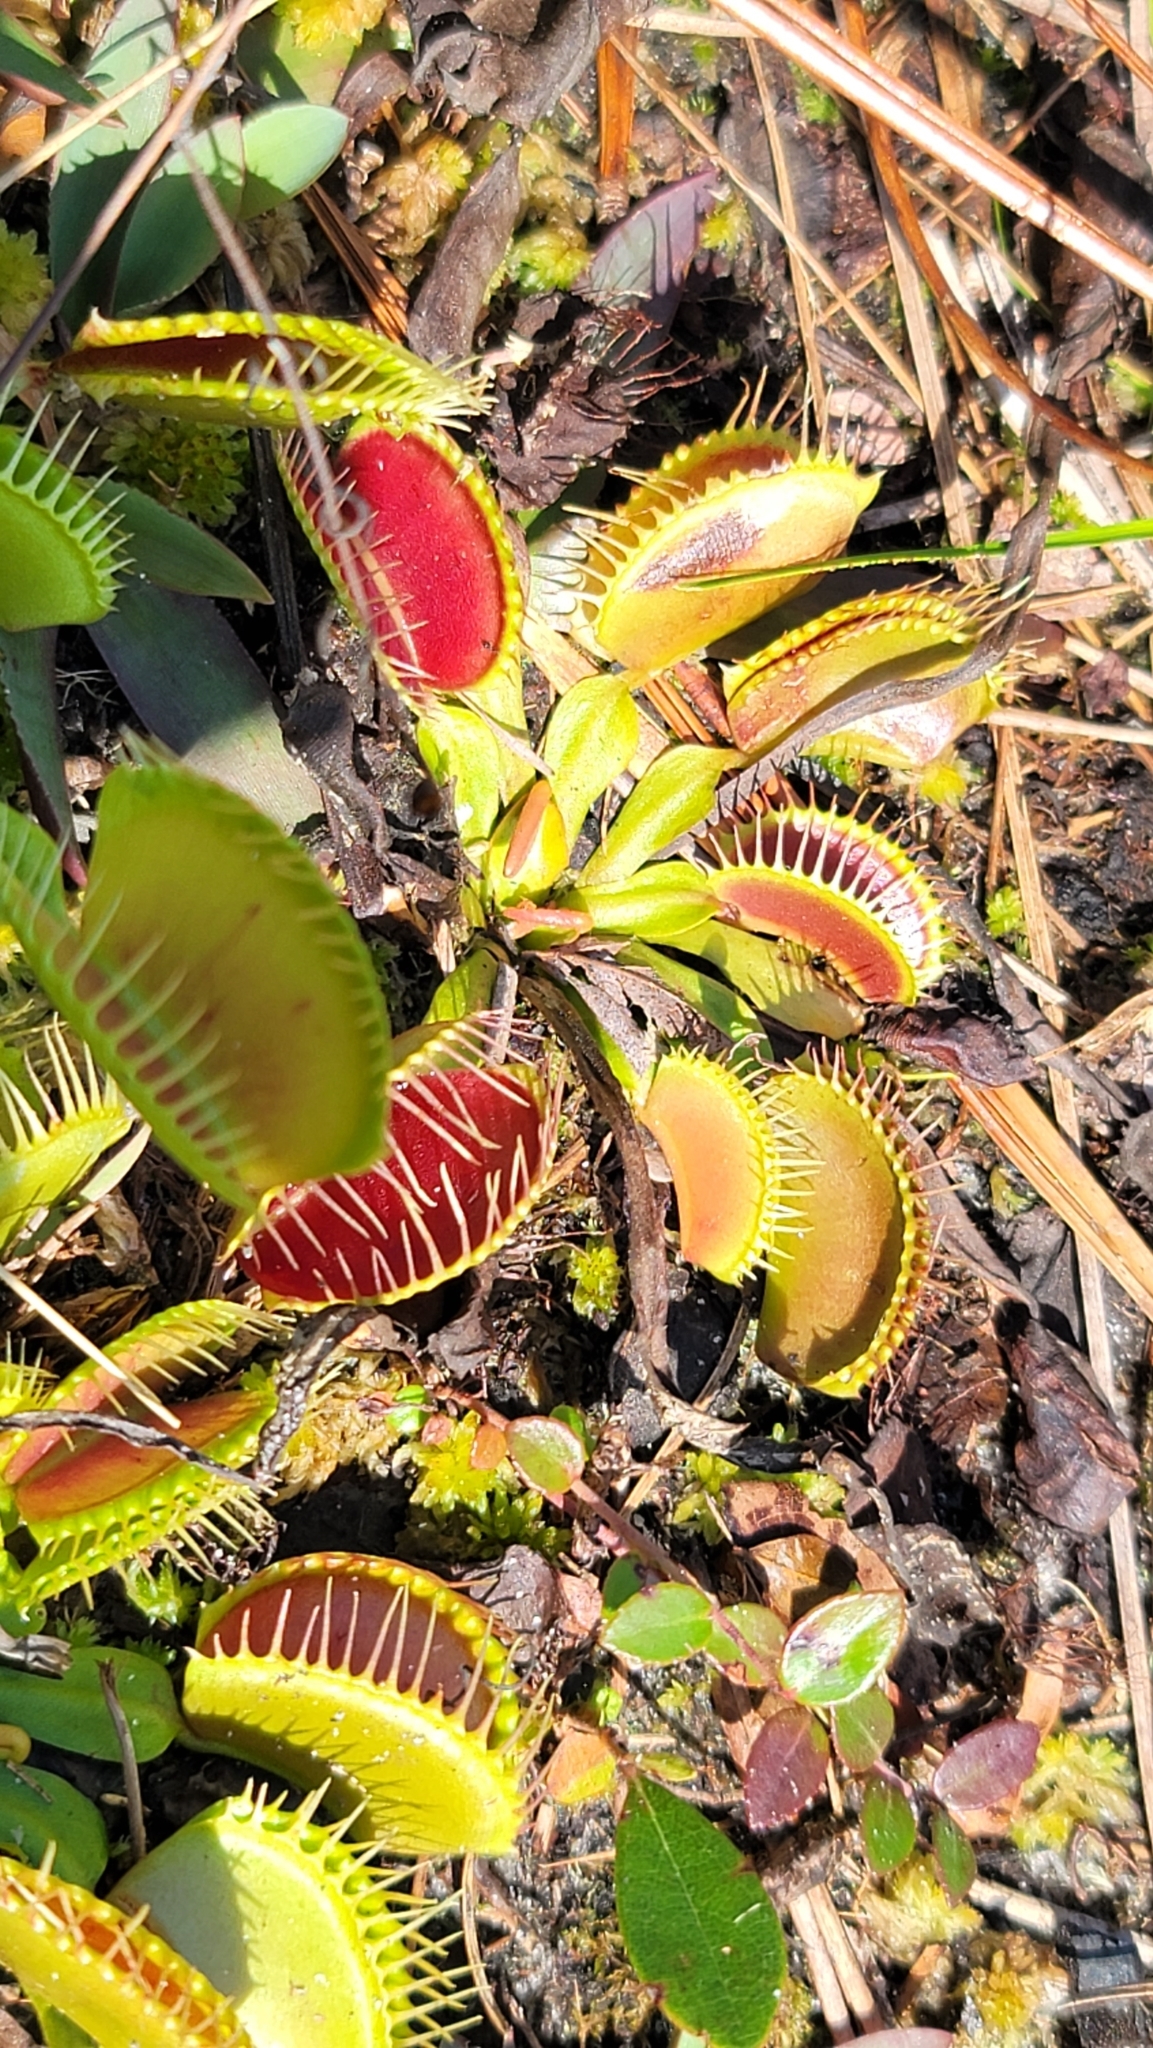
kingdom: Plantae
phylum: Tracheophyta
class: Magnoliopsida
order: Caryophyllales
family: Droseraceae
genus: Dionaea
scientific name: Dionaea muscipula
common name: Venus flytrap
